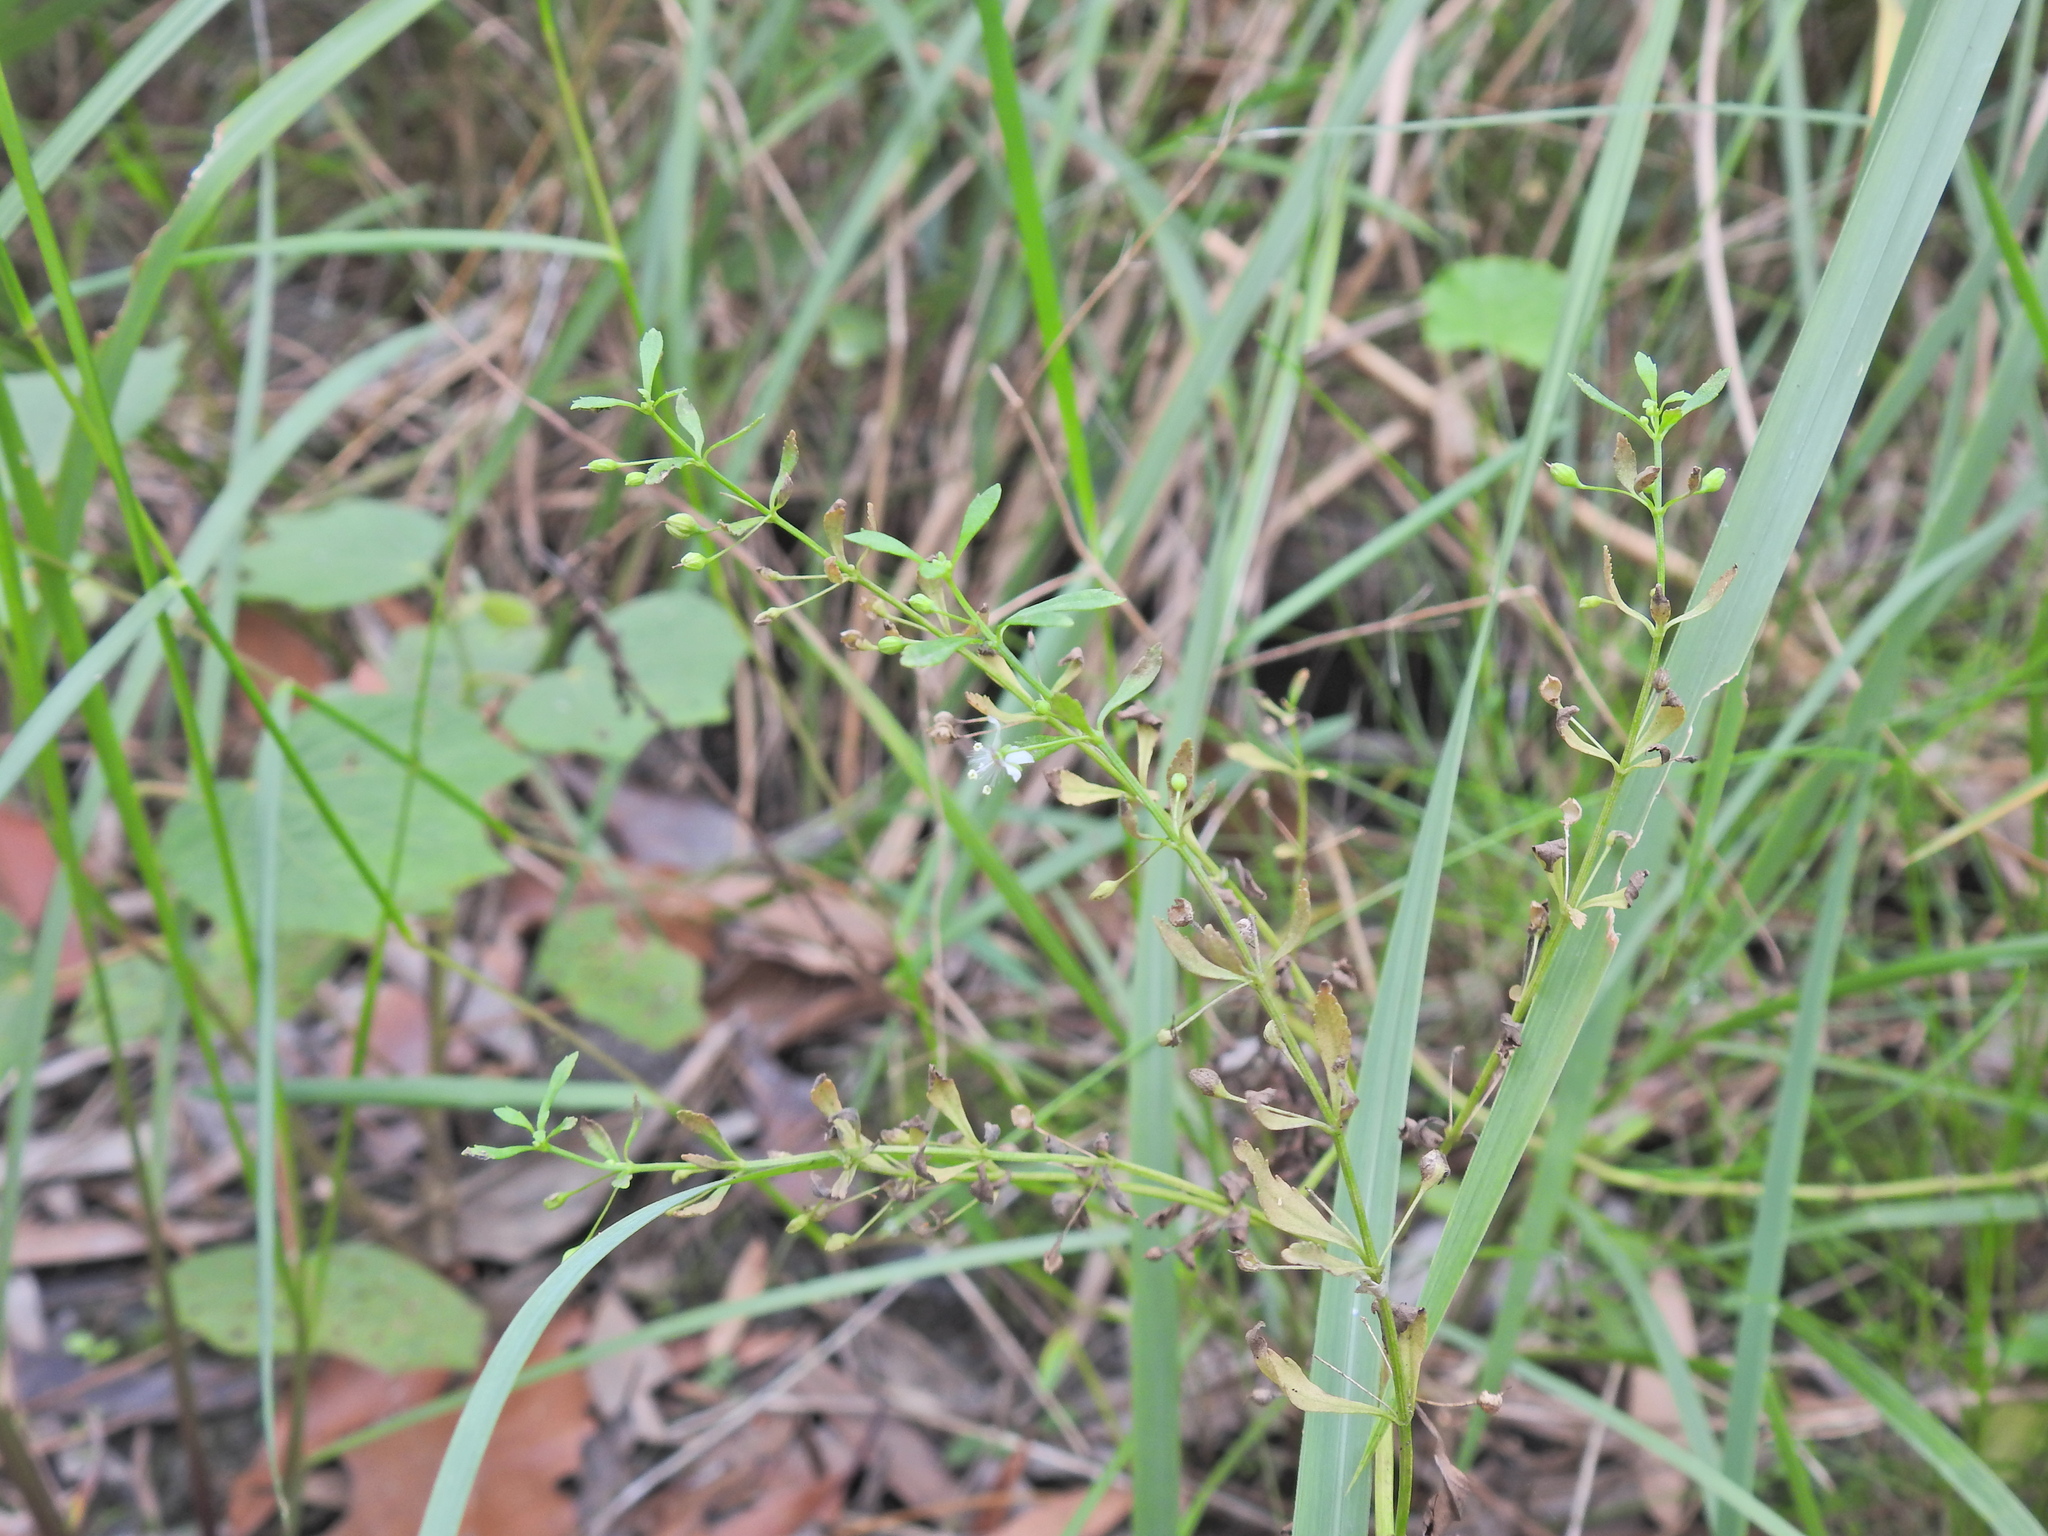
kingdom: Plantae
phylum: Tracheophyta
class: Magnoliopsida
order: Lamiales
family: Plantaginaceae
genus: Scoparia
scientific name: Scoparia dulcis
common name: Scoparia-weed
